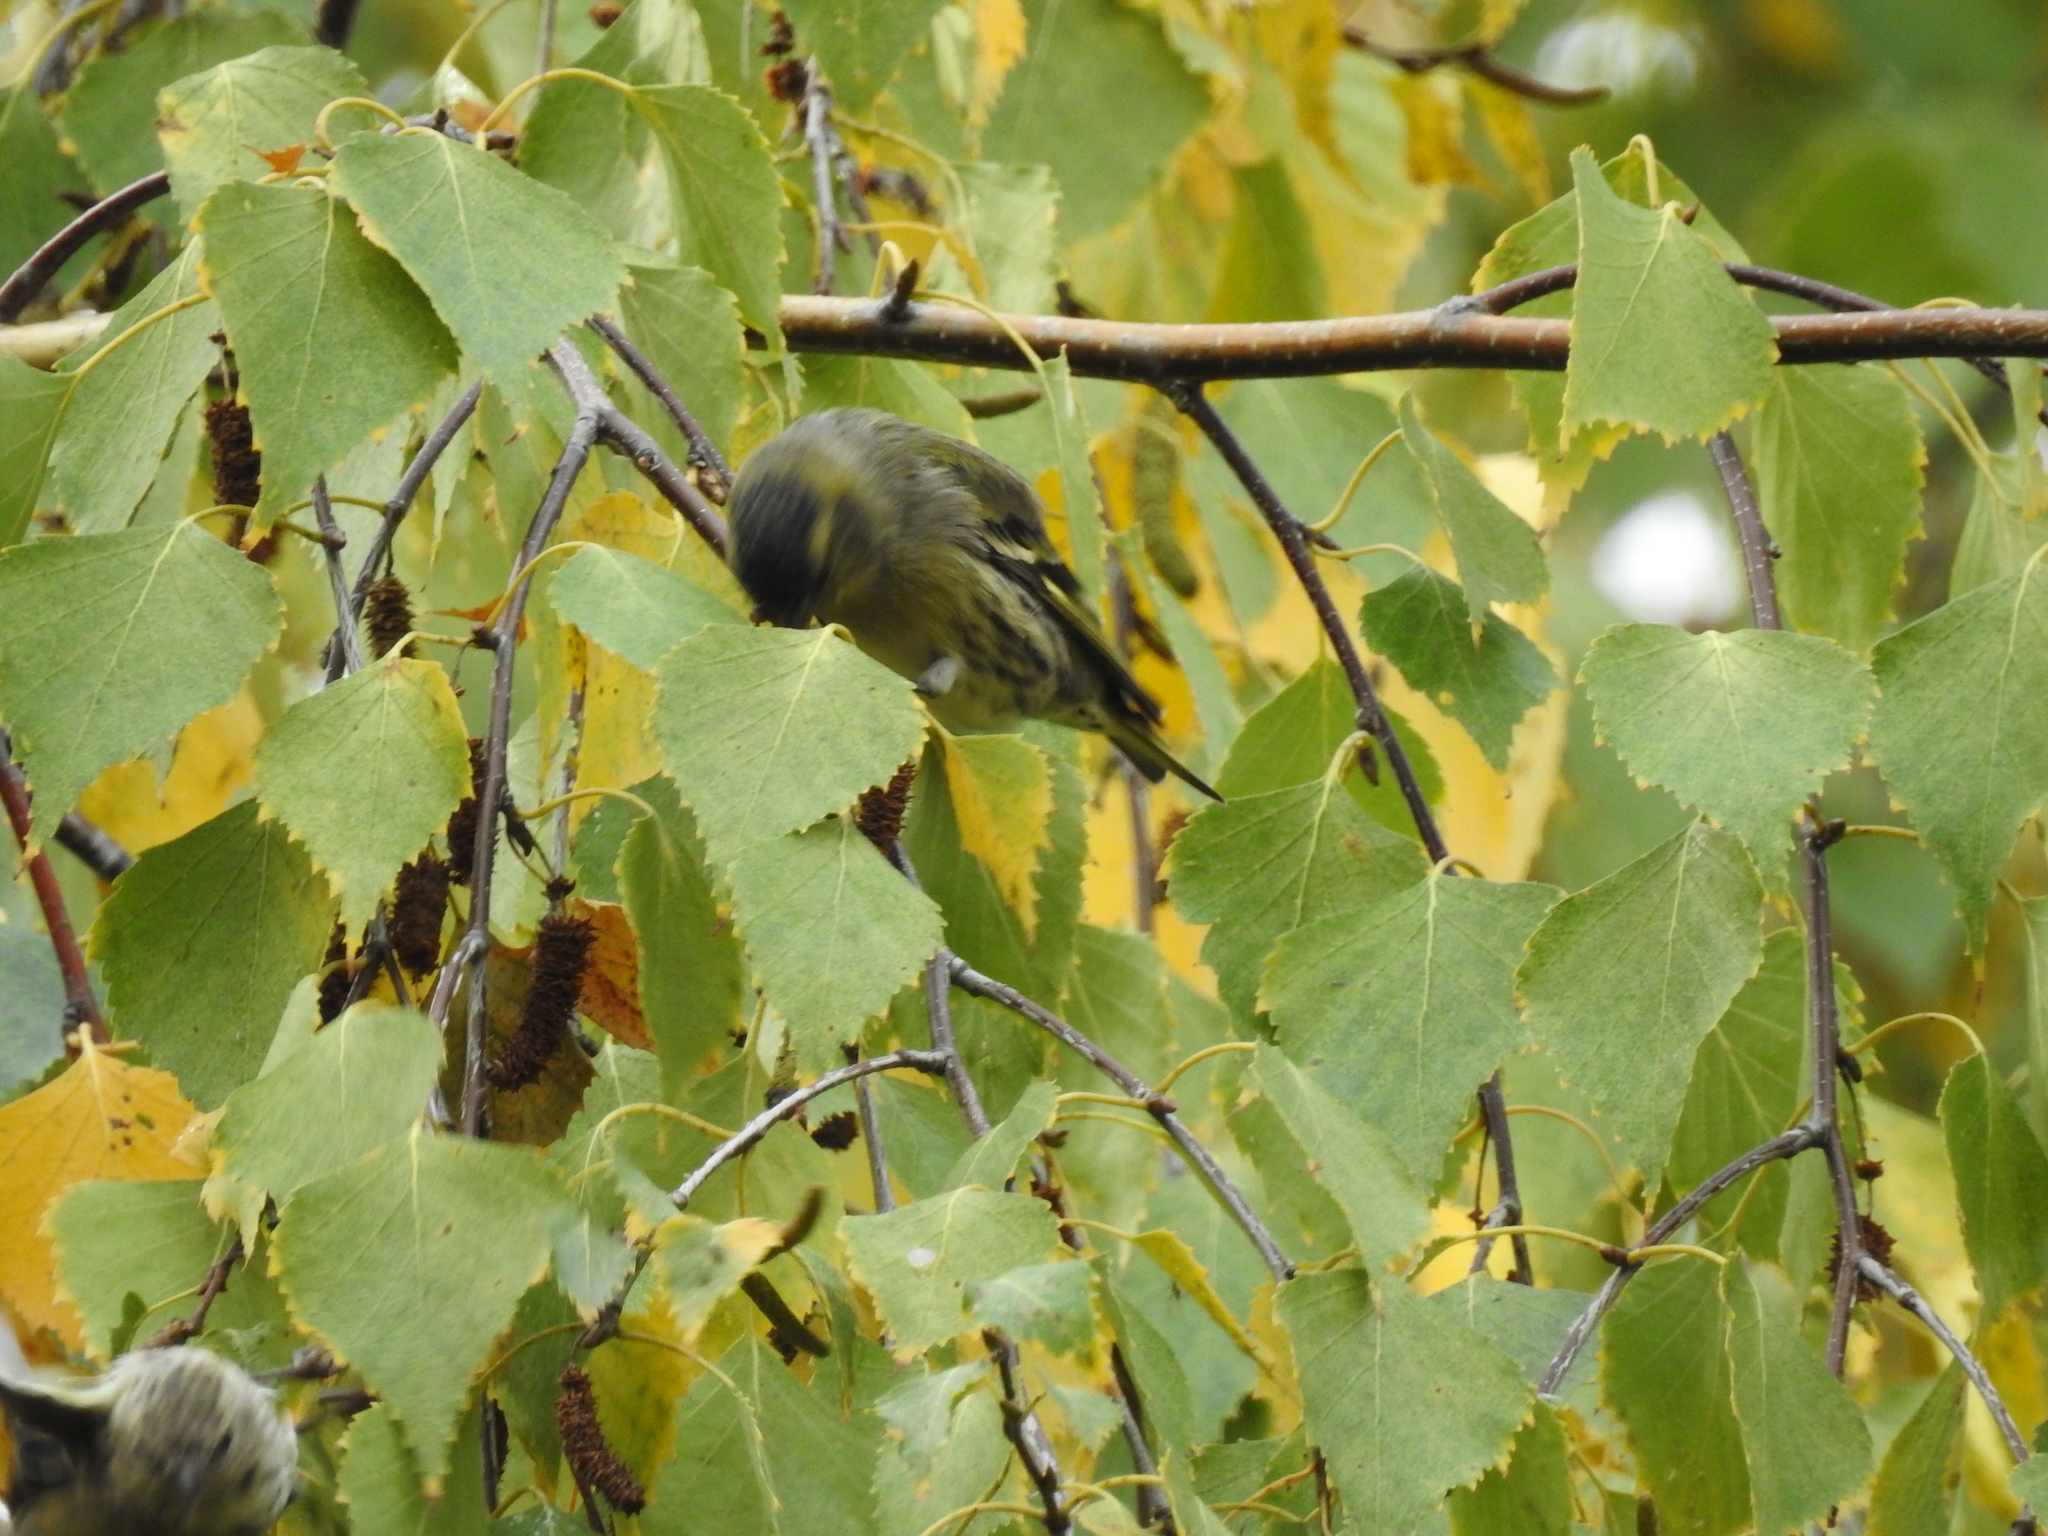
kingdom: Animalia
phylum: Chordata
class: Aves
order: Passeriformes
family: Fringillidae
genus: Spinus
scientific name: Spinus spinus
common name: Eurasian siskin
